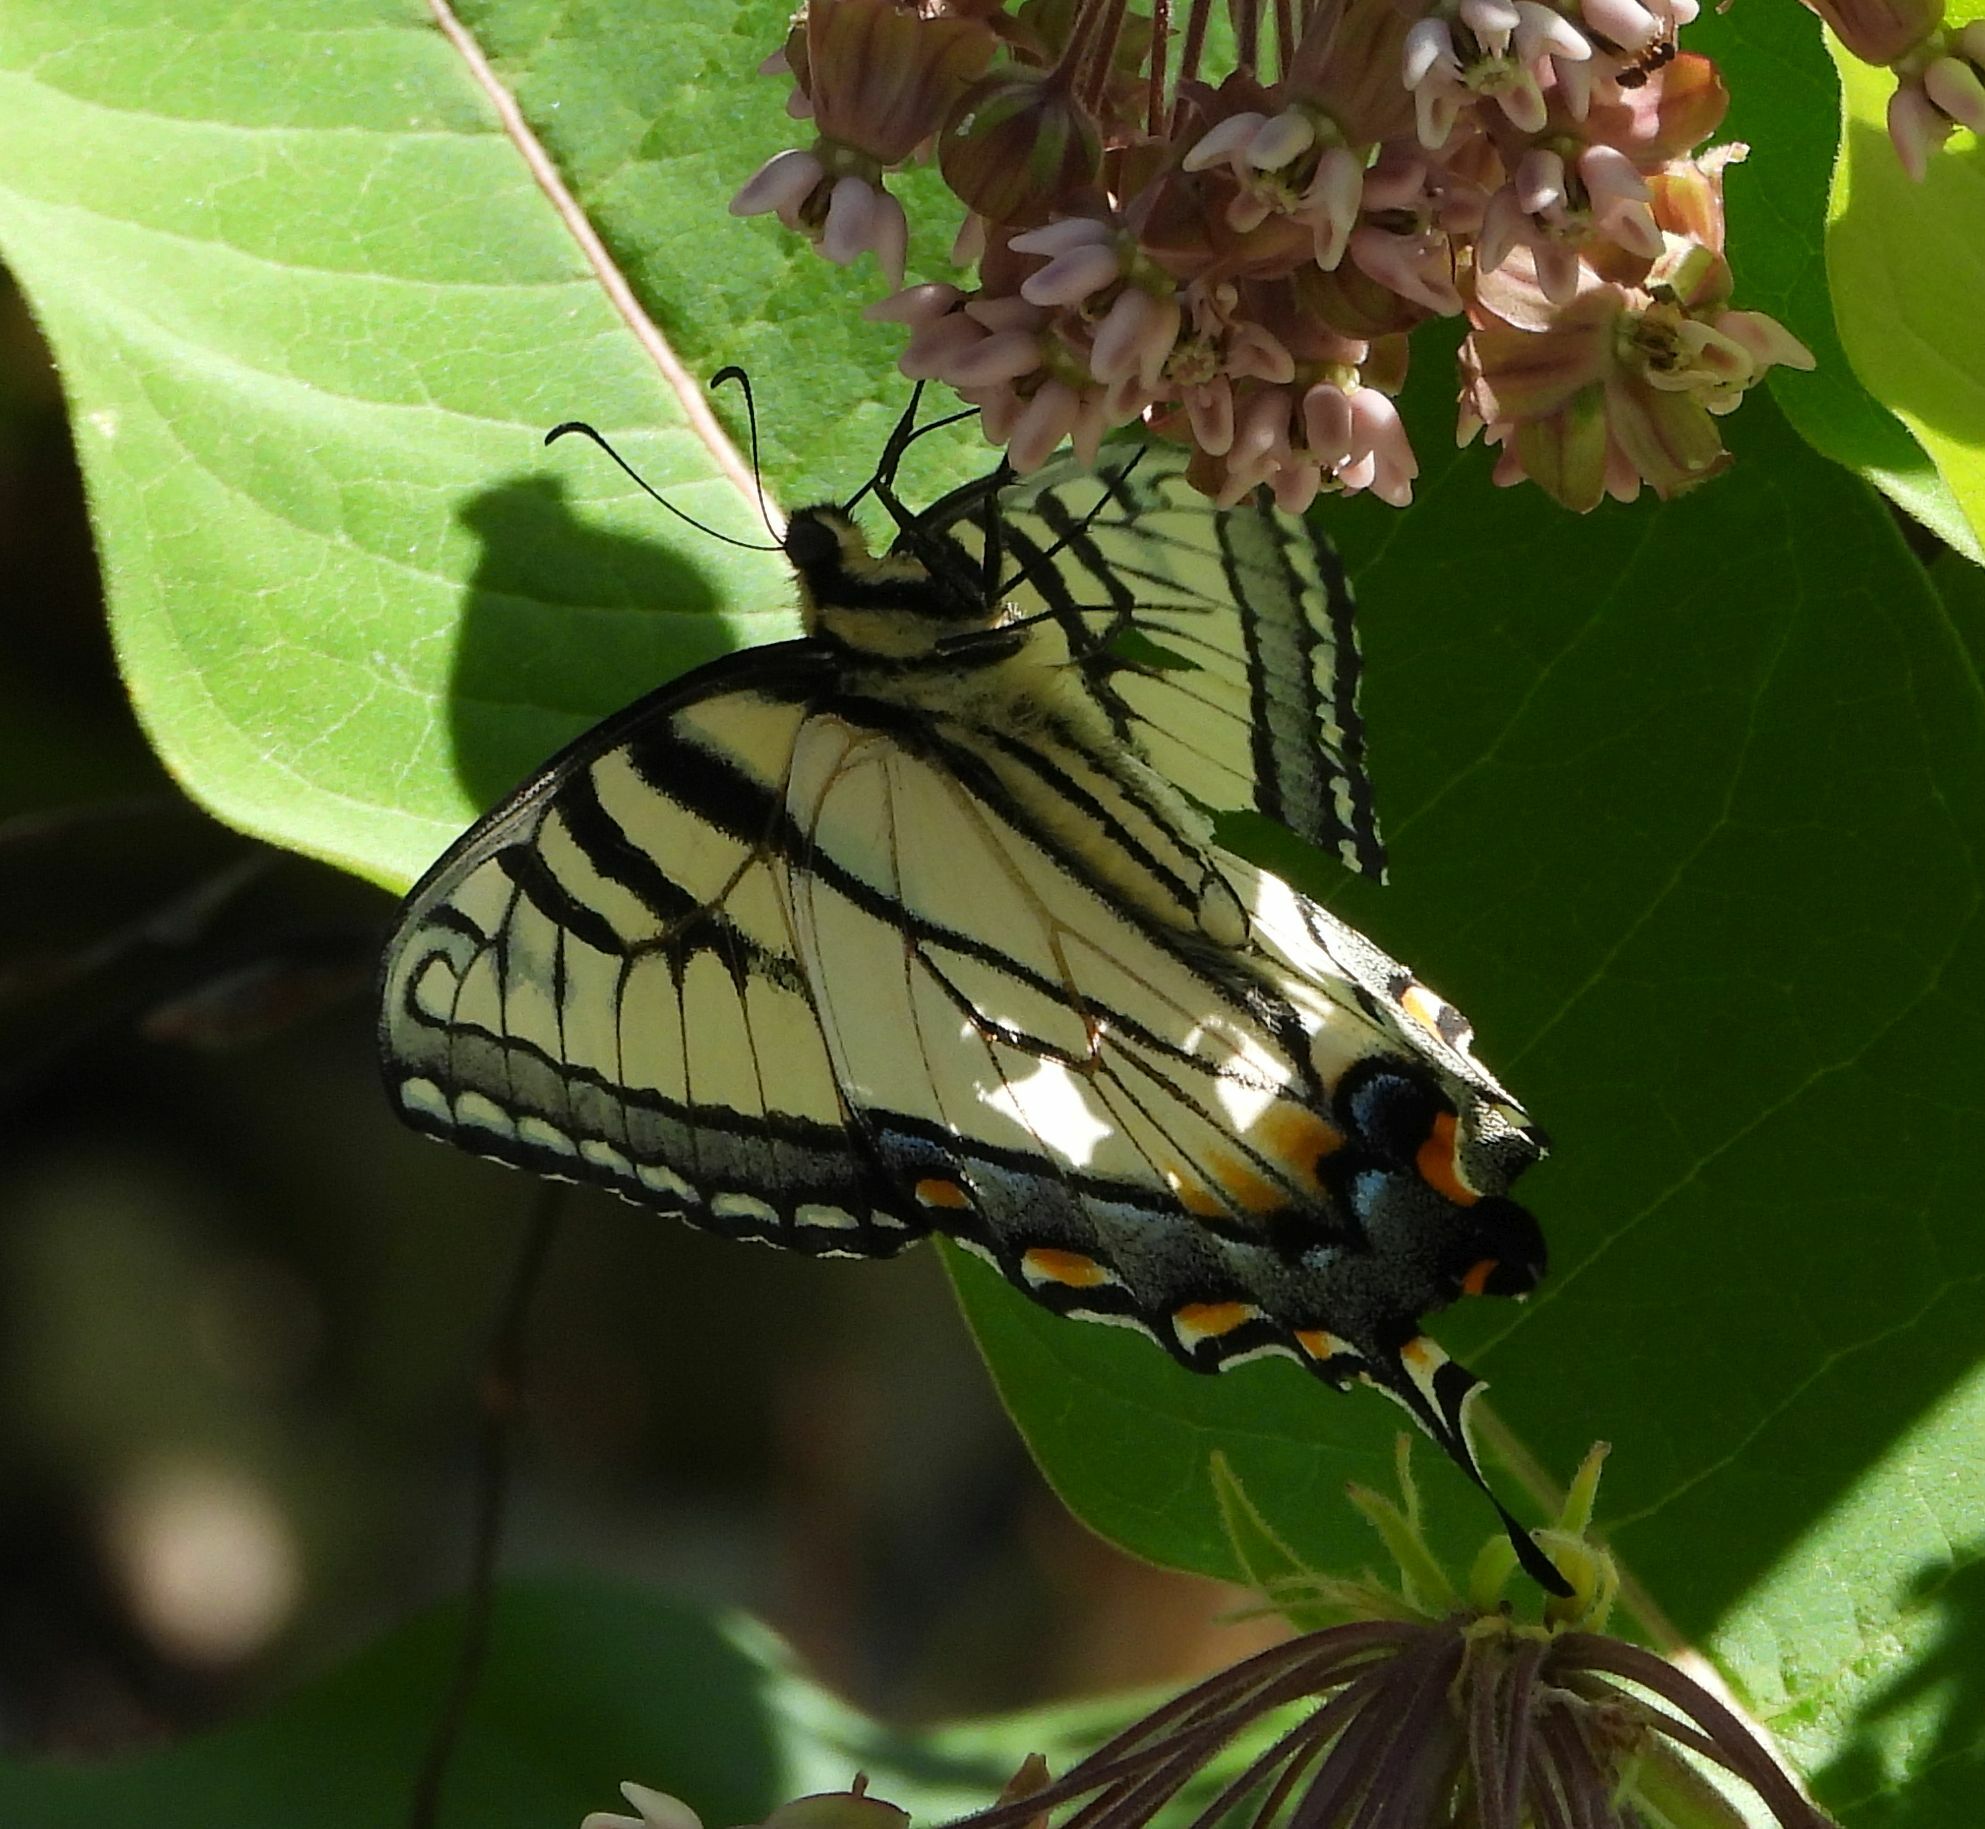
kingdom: Animalia
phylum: Arthropoda
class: Insecta
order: Lepidoptera
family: Papilionidae
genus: Papilio
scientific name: Papilio
